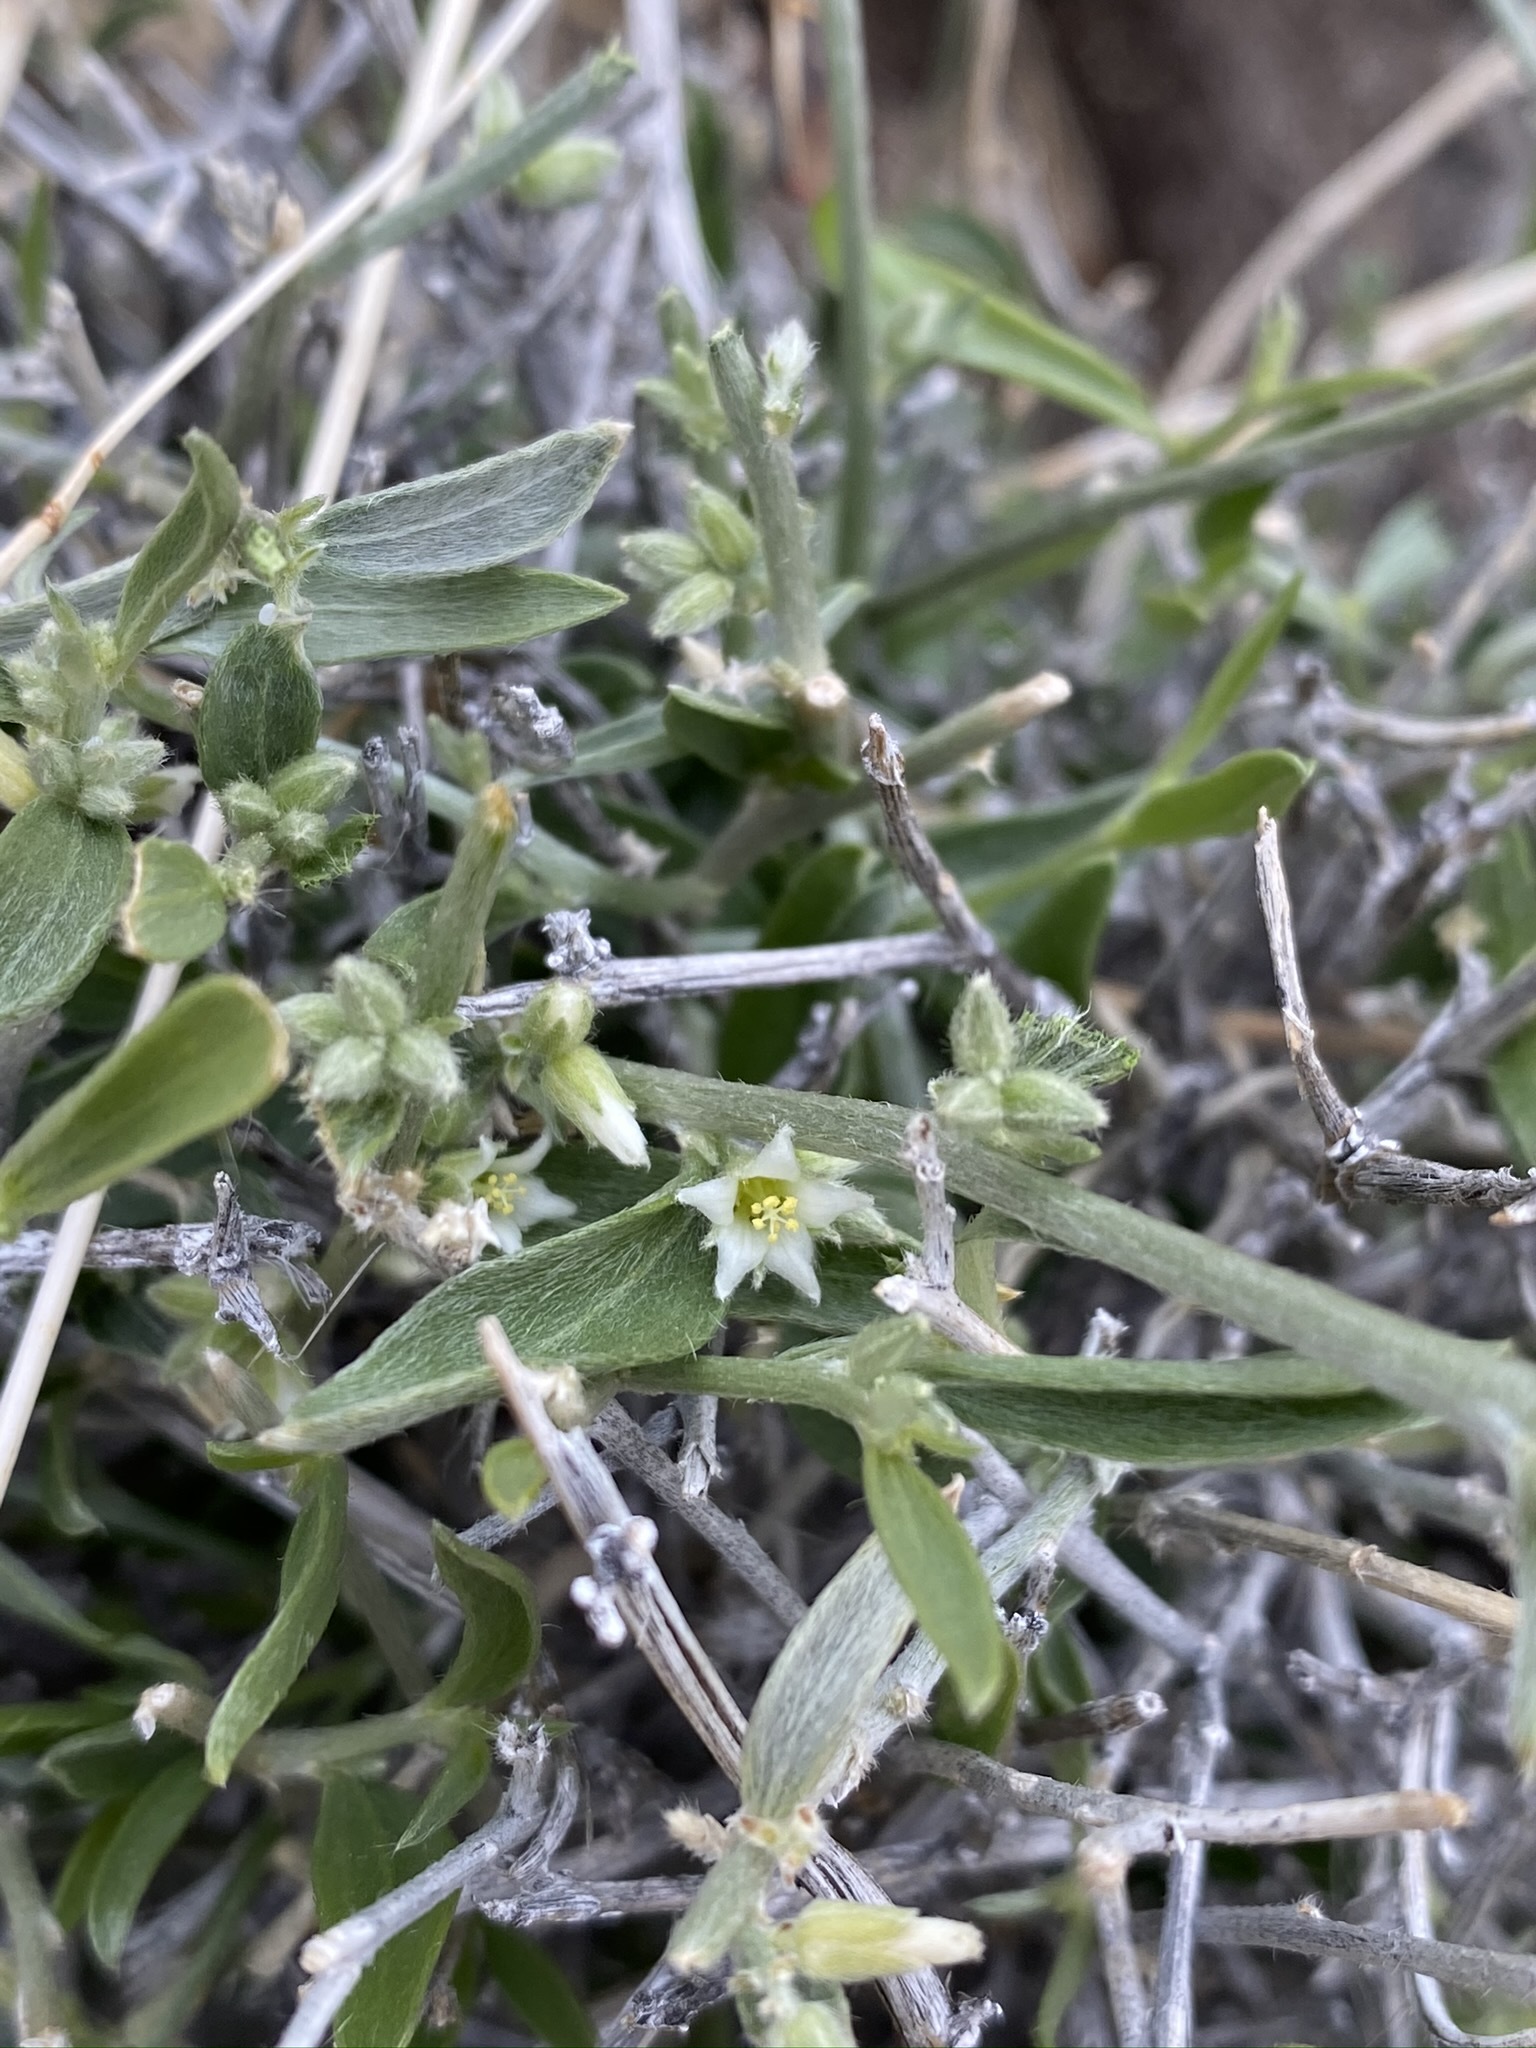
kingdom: Plantae
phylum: Tracheophyta
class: Magnoliopsida
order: Malpighiales
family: Euphorbiaceae
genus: Ditaxis
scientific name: Ditaxis lanceolata
